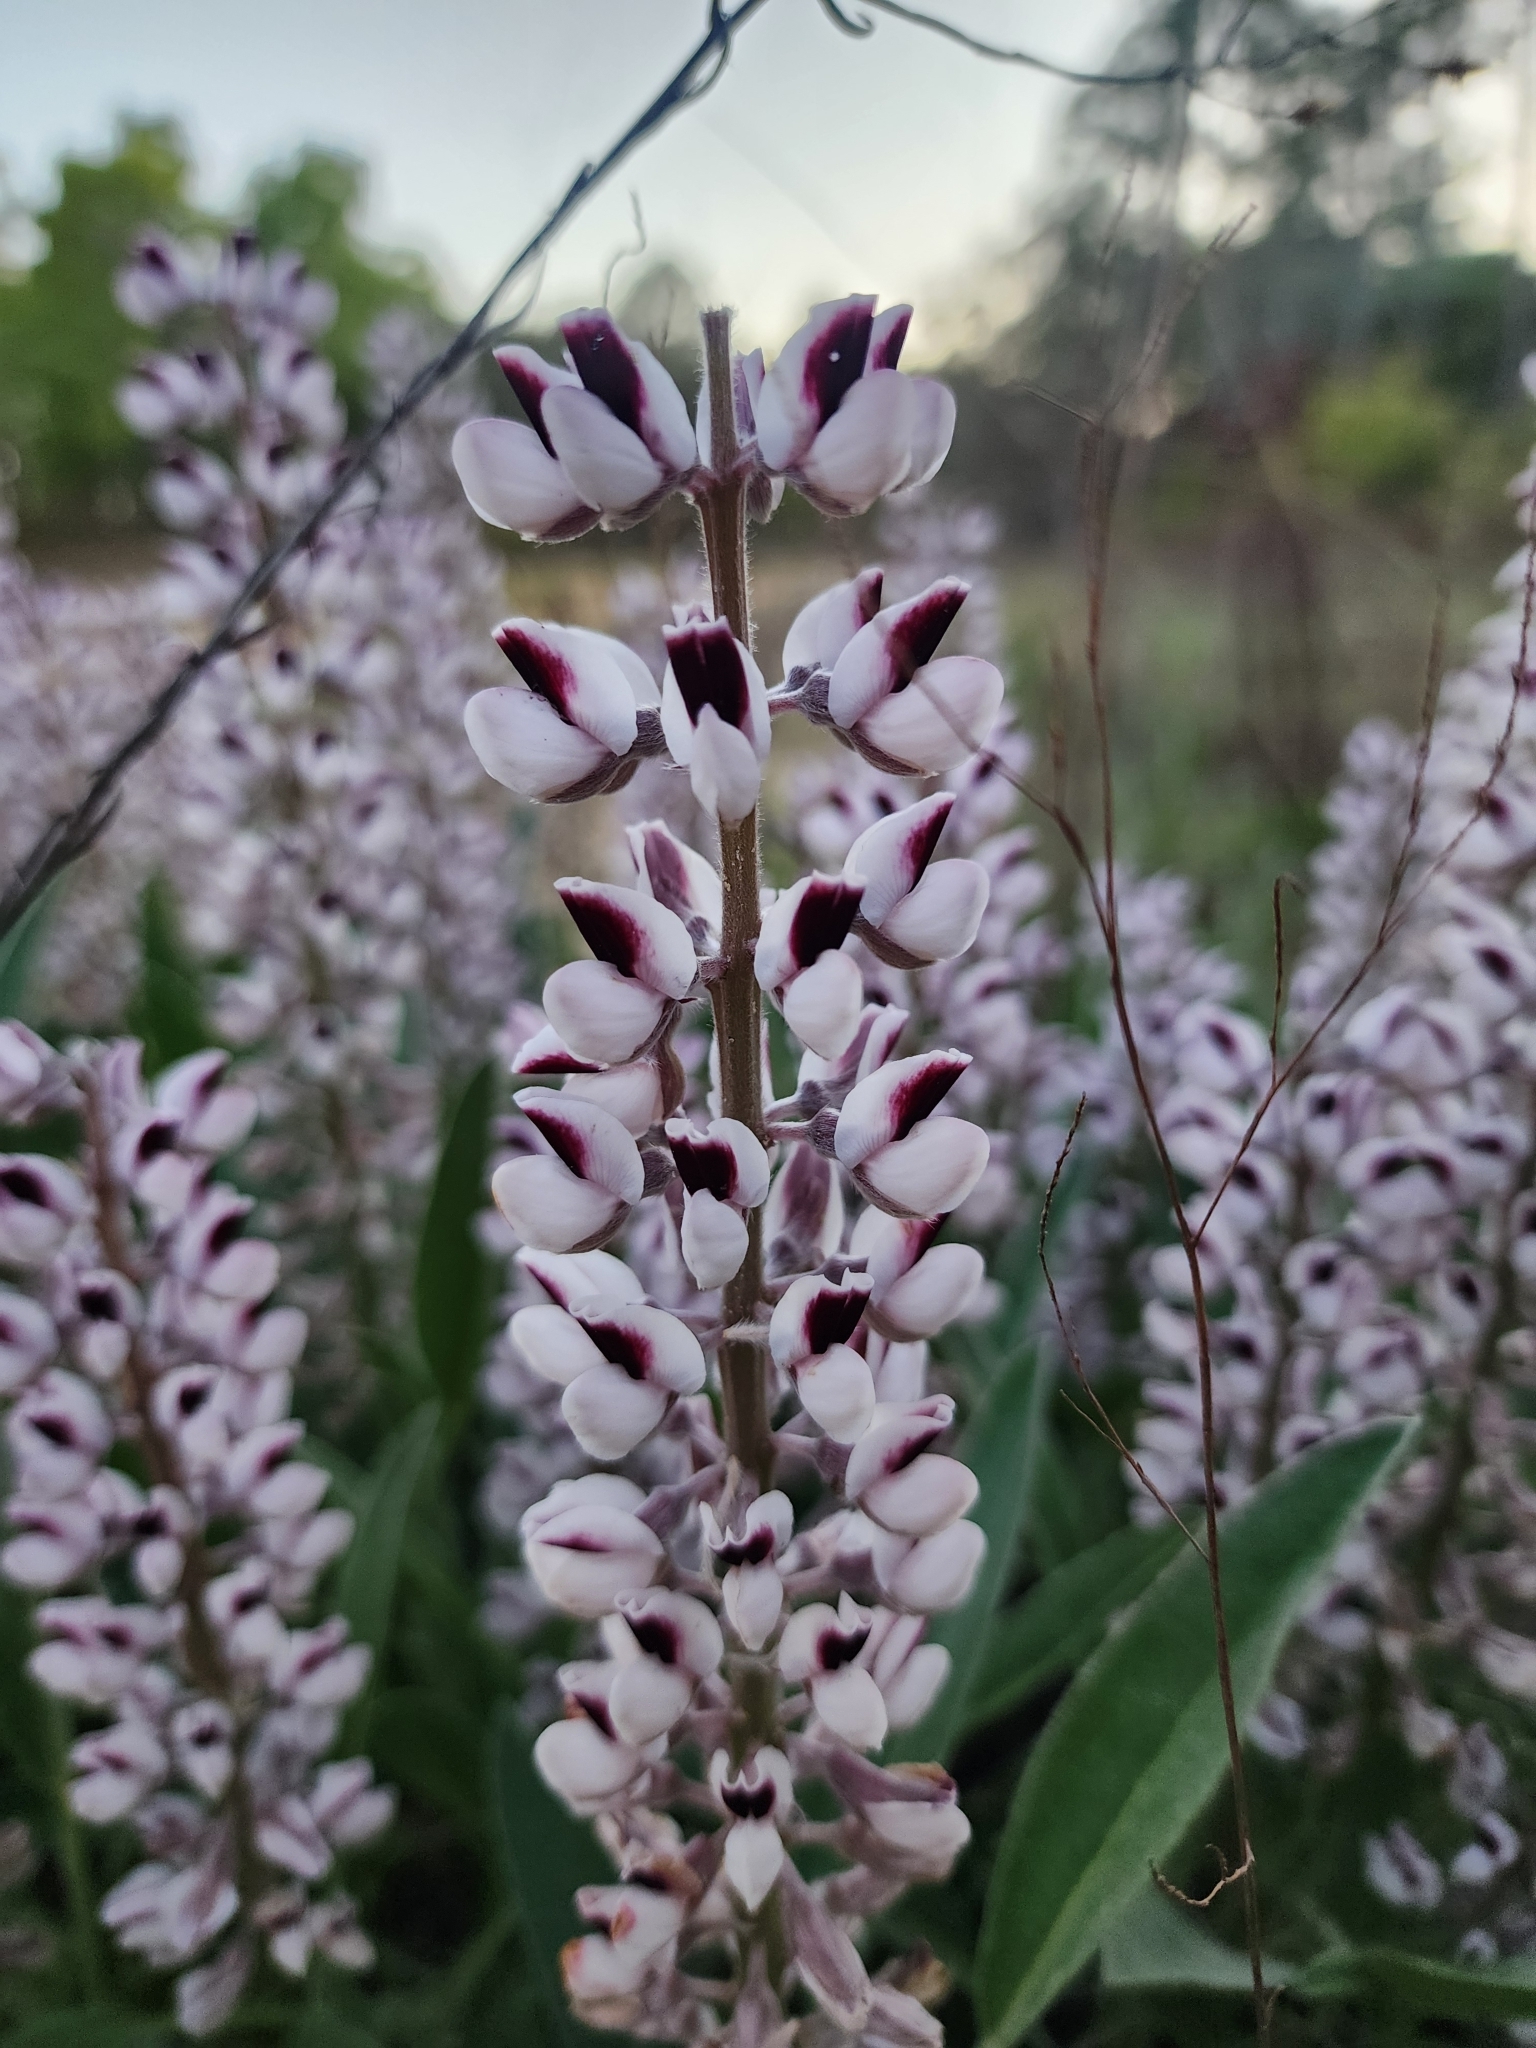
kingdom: Plantae
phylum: Tracheophyta
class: Magnoliopsida
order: Fabales
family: Fabaceae
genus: Lupinus
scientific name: Lupinus villosus
